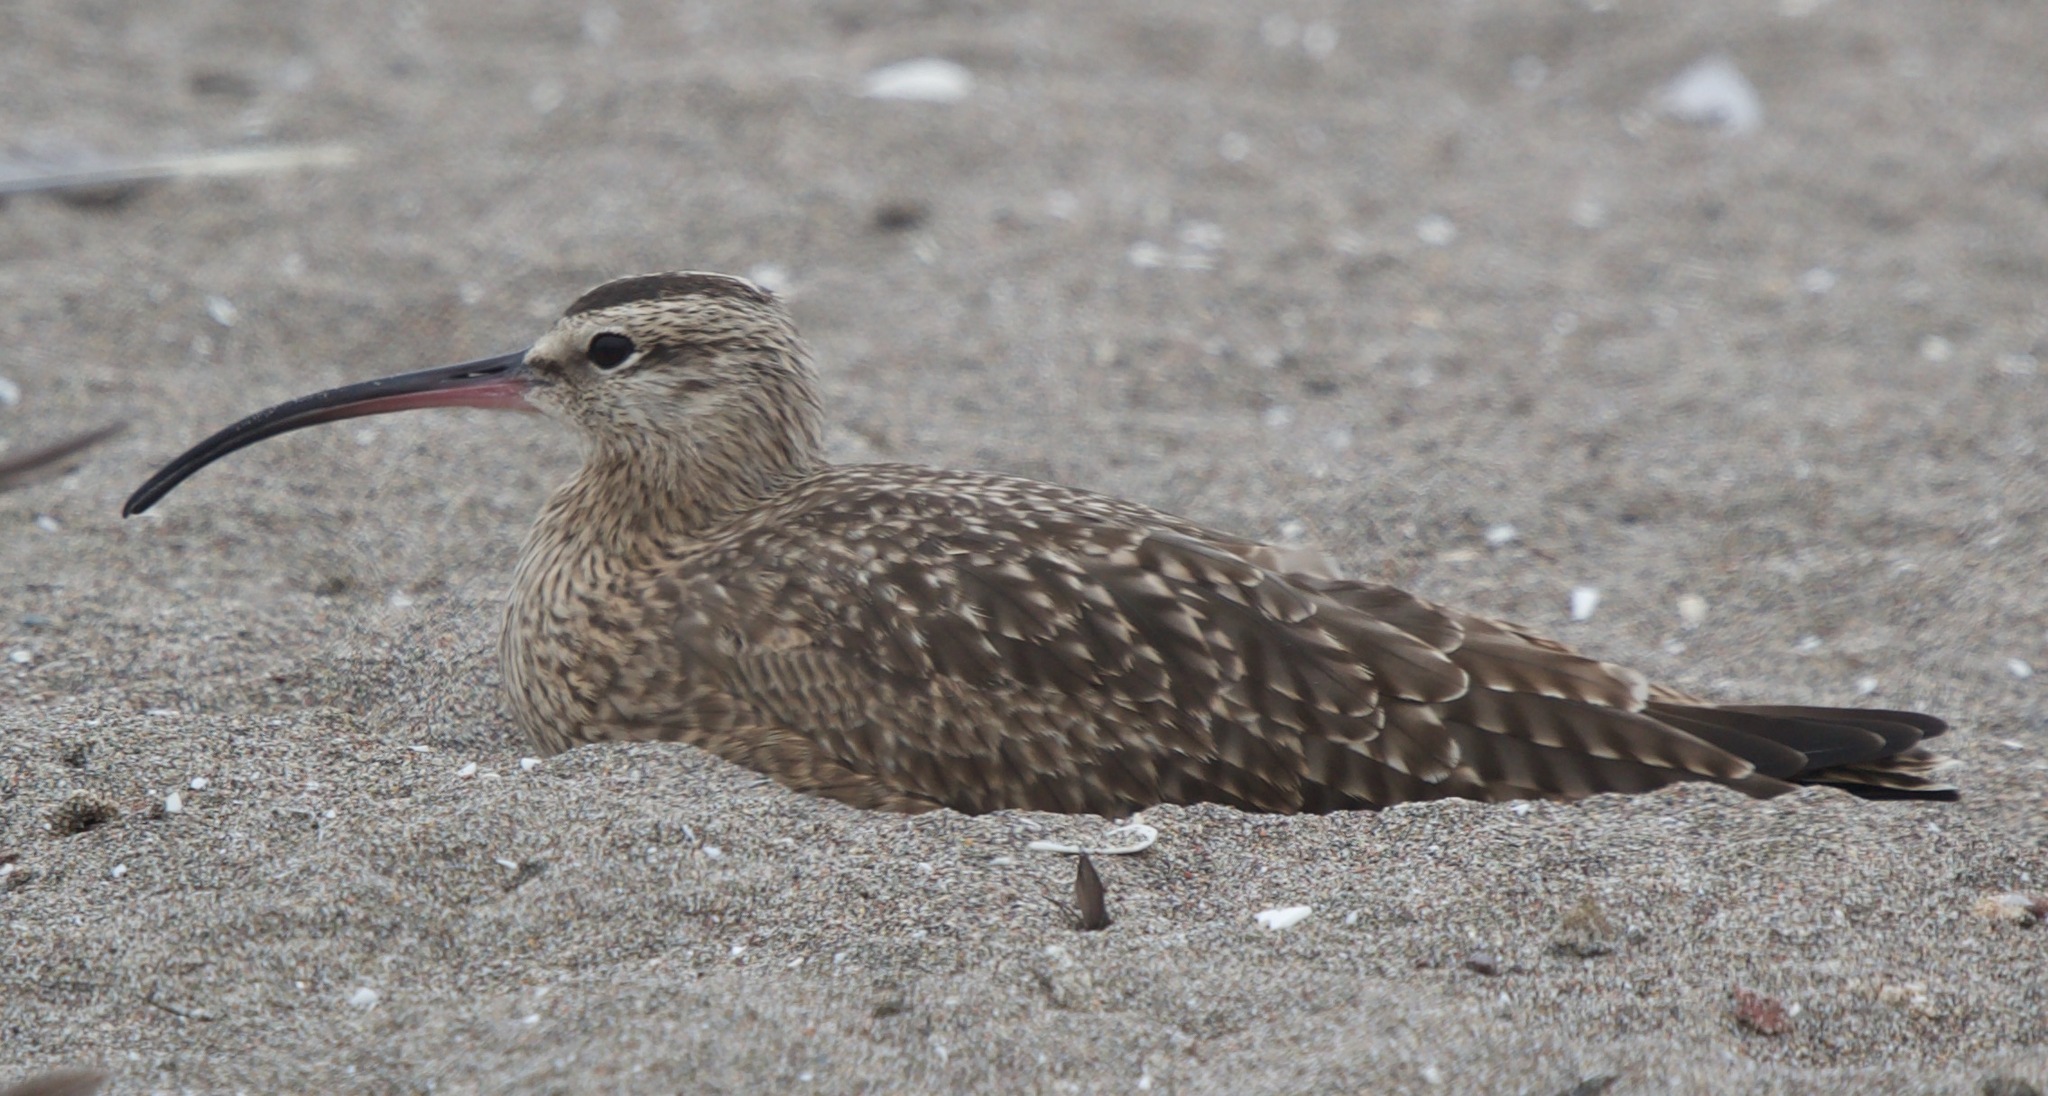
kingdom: Animalia
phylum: Chordata
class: Aves
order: Charadriiformes
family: Scolopacidae
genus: Numenius
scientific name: Numenius phaeopus
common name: Whimbrel
